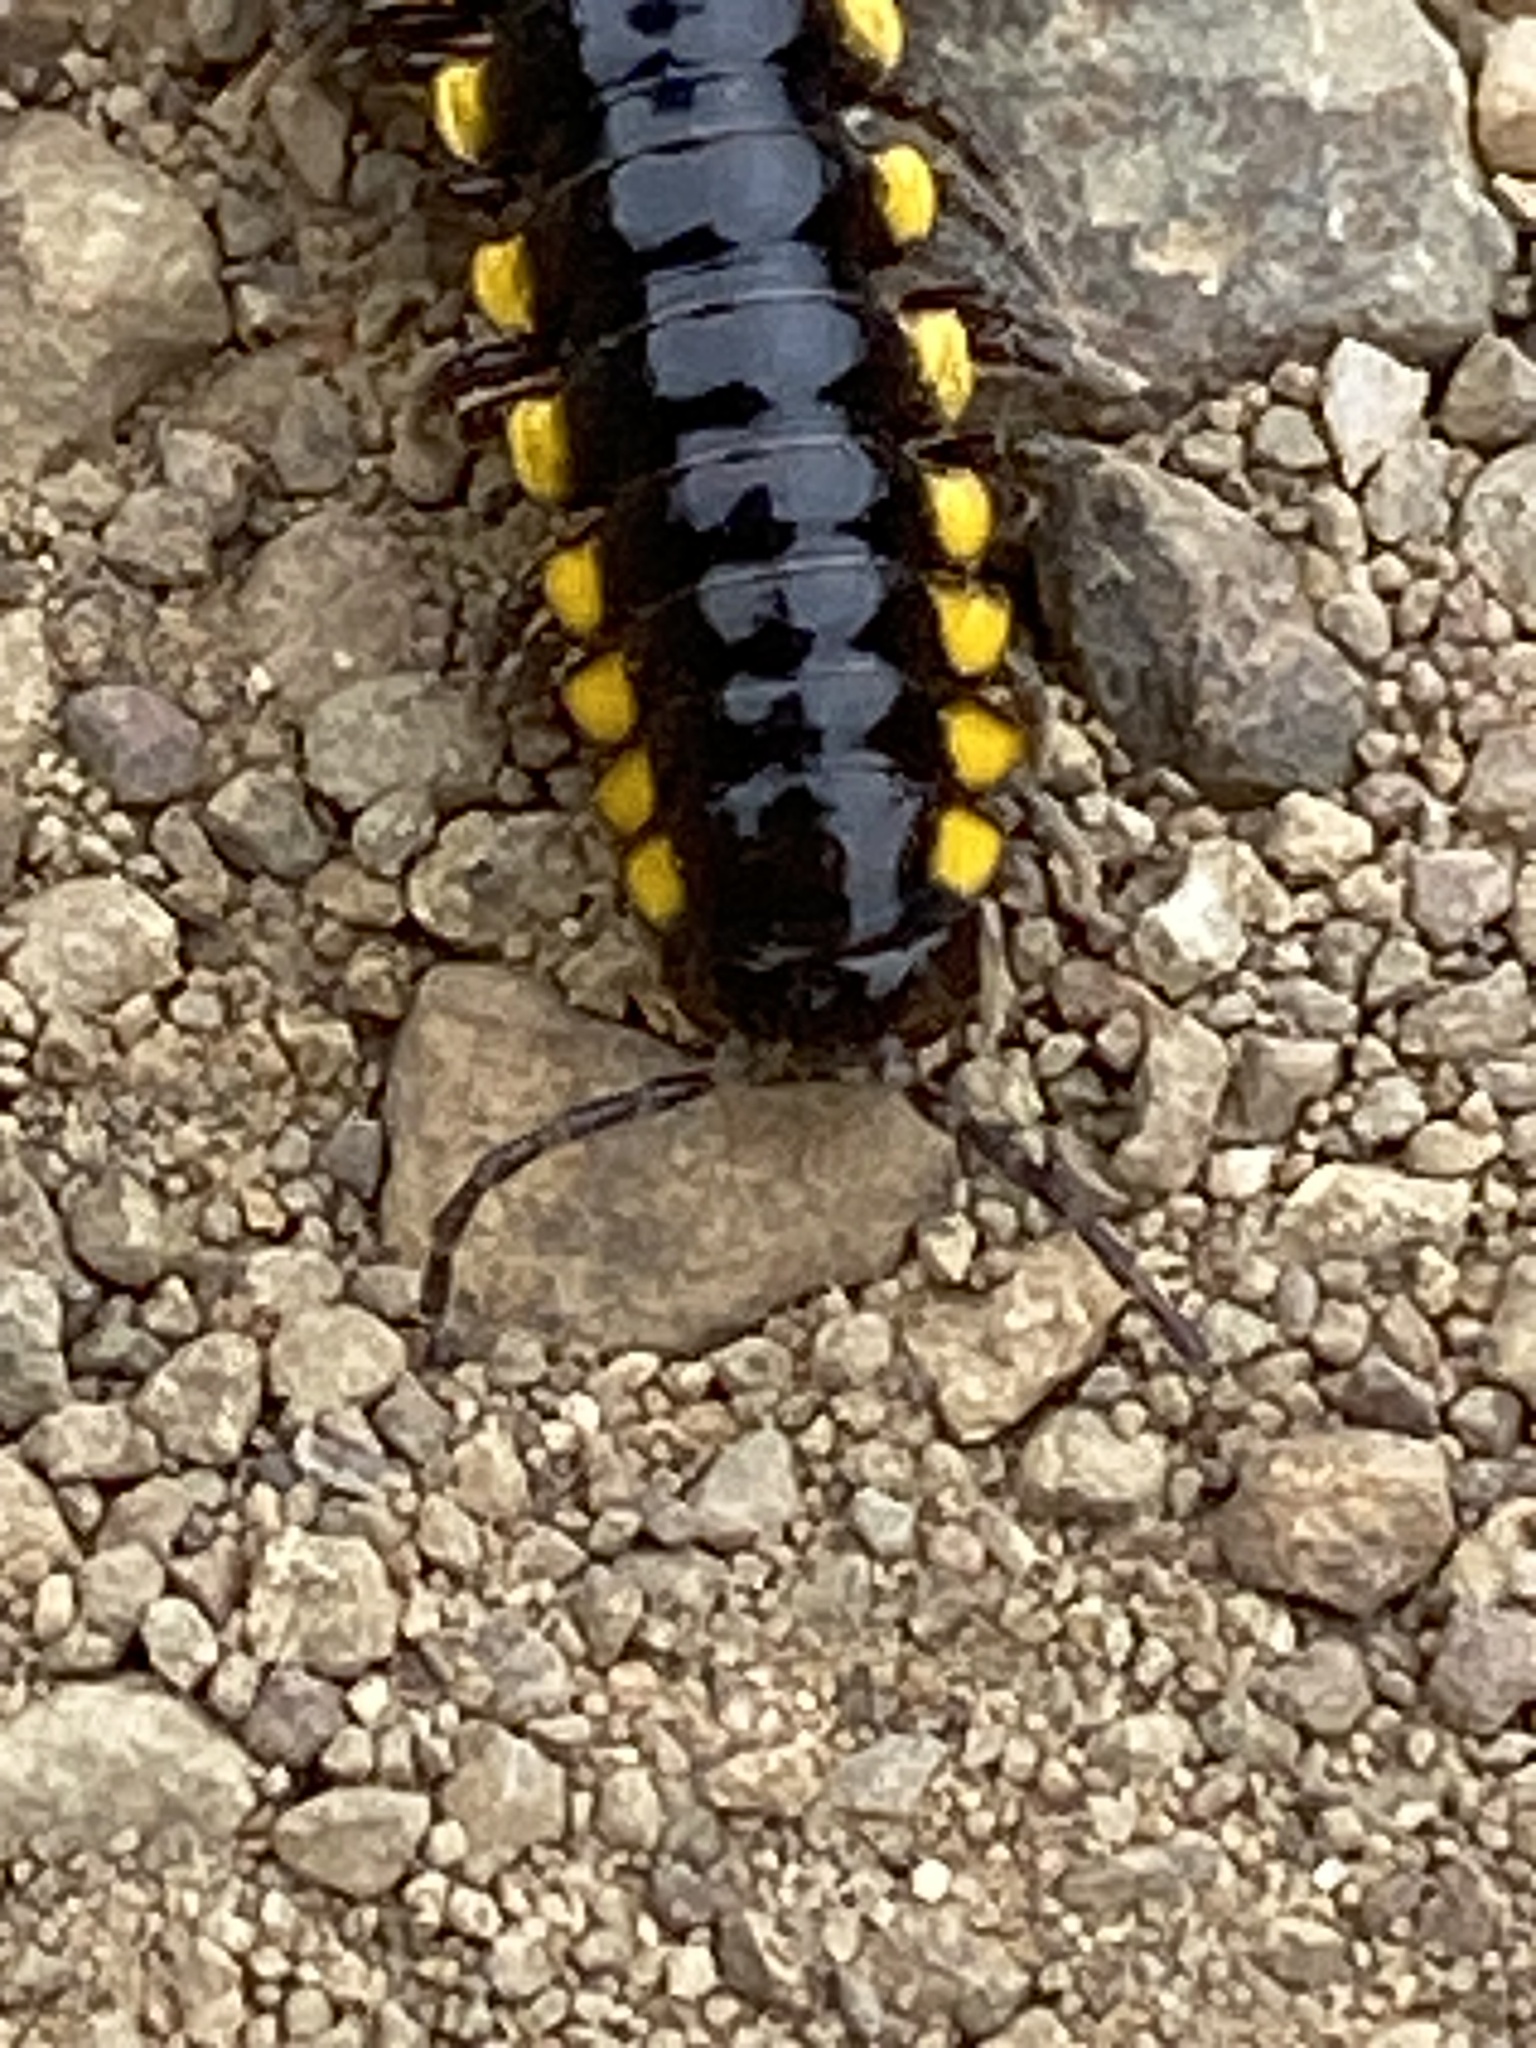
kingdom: Animalia
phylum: Arthropoda
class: Diplopoda
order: Polydesmida
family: Xystodesmidae
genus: Harpaphe
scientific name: Harpaphe haydeniana
